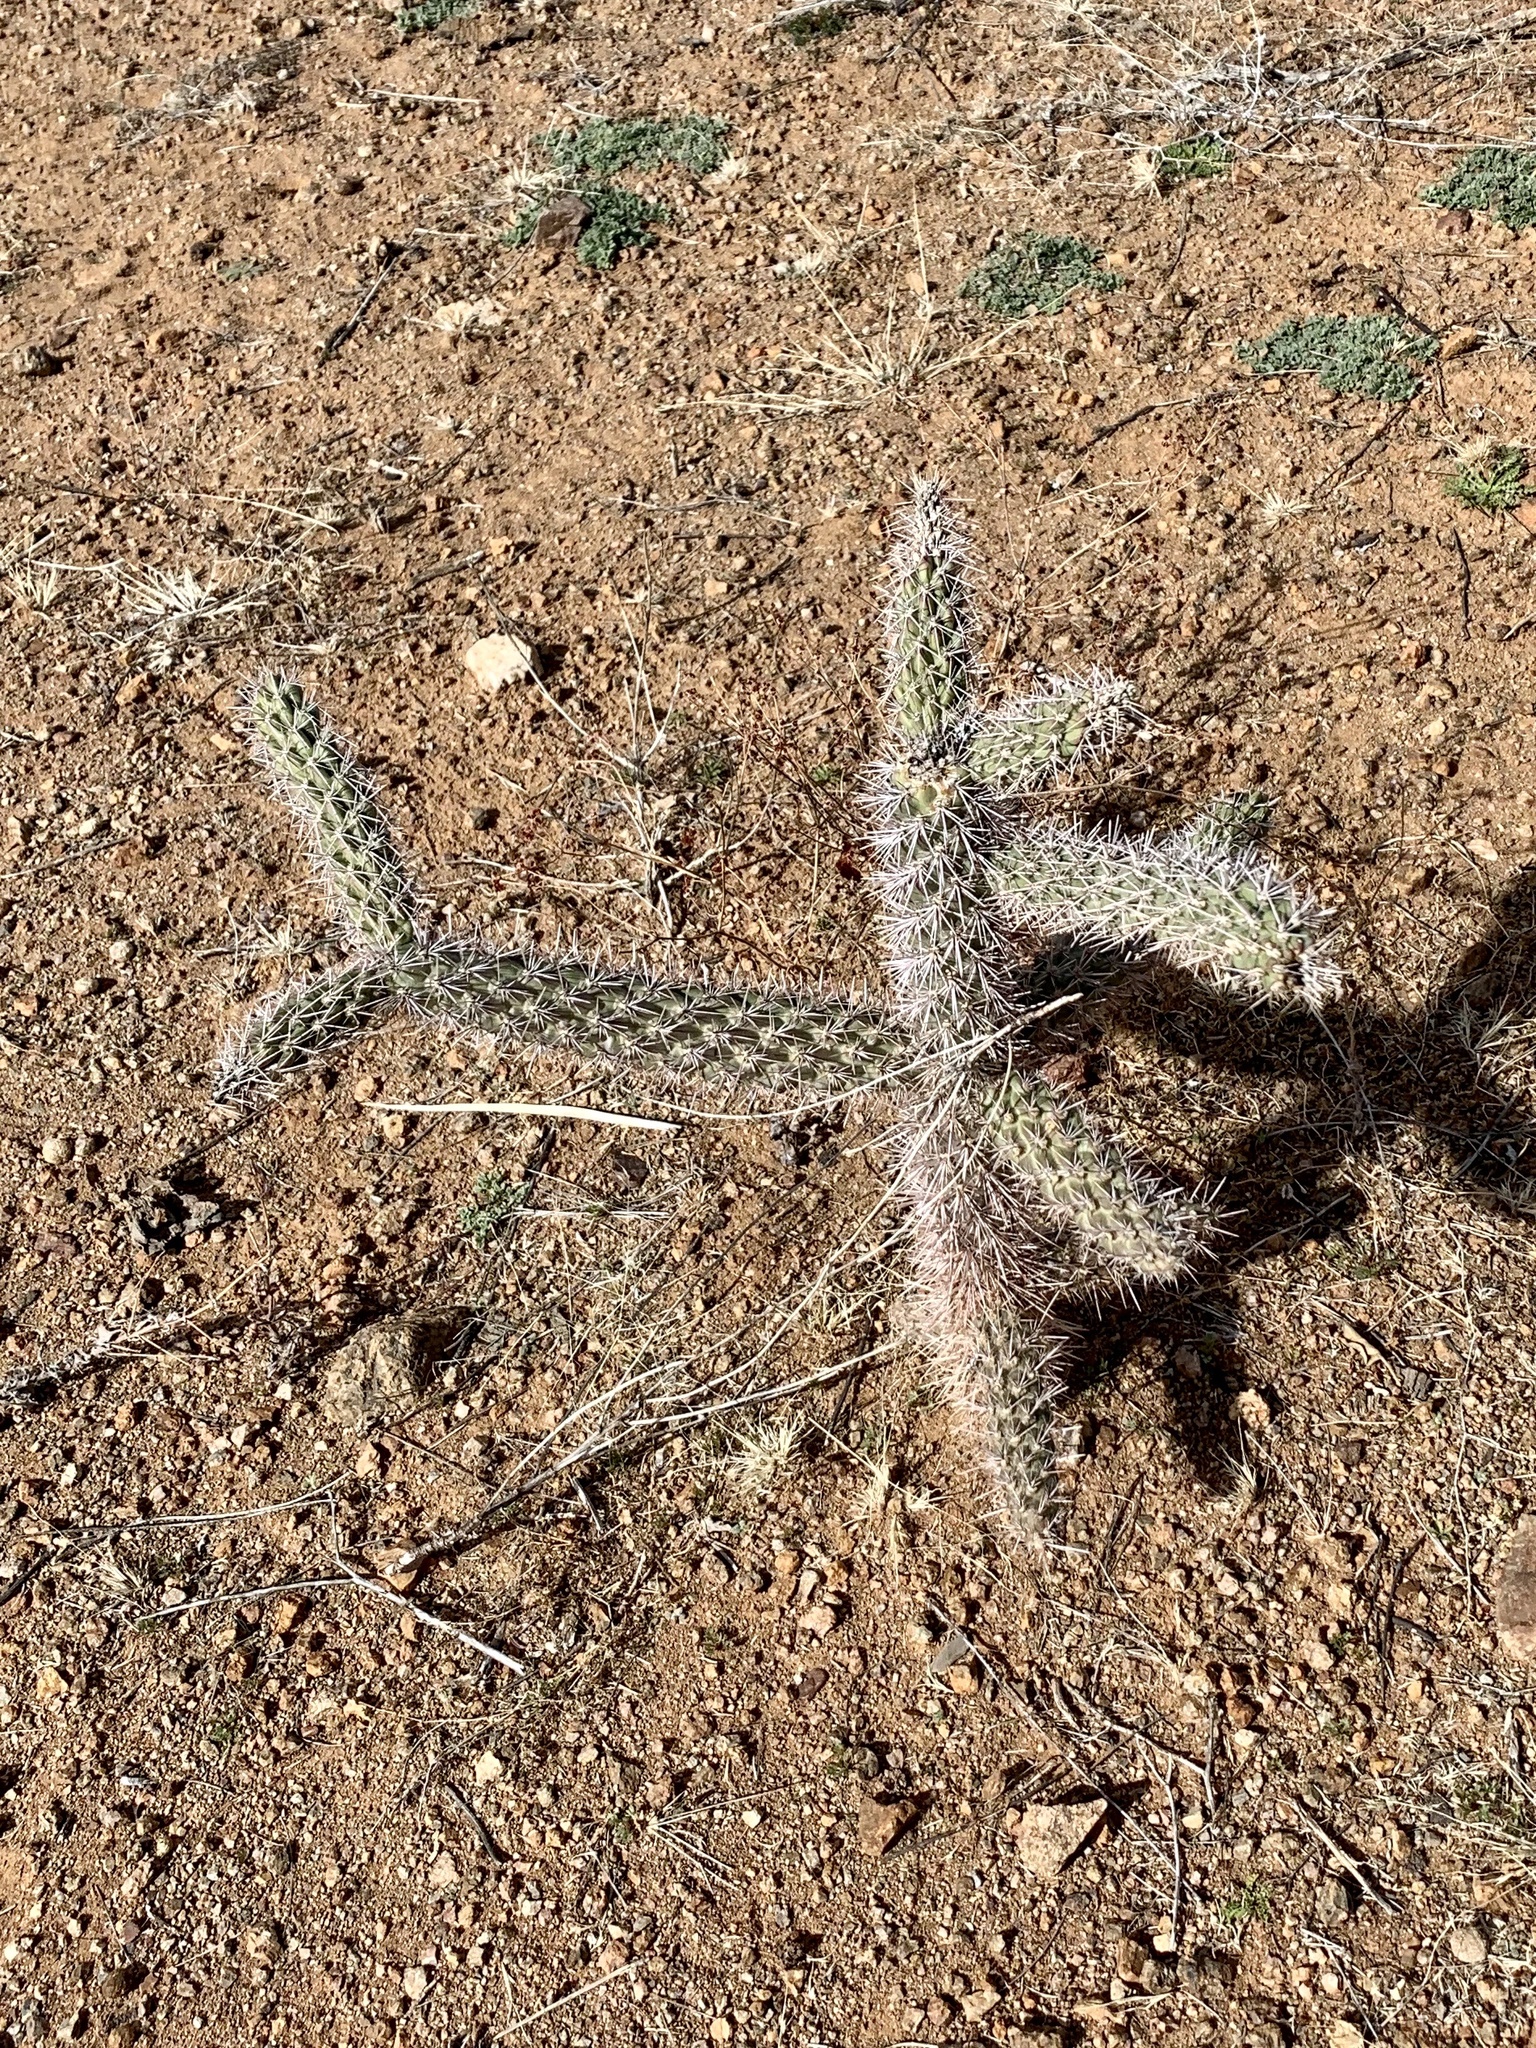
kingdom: Plantae
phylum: Tracheophyta
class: Magnoliopsida
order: Caryophyllales
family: Cactaceae
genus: Cylindropuntia
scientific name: Cylindropuntia imbricata
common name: Candelabrum cactus
